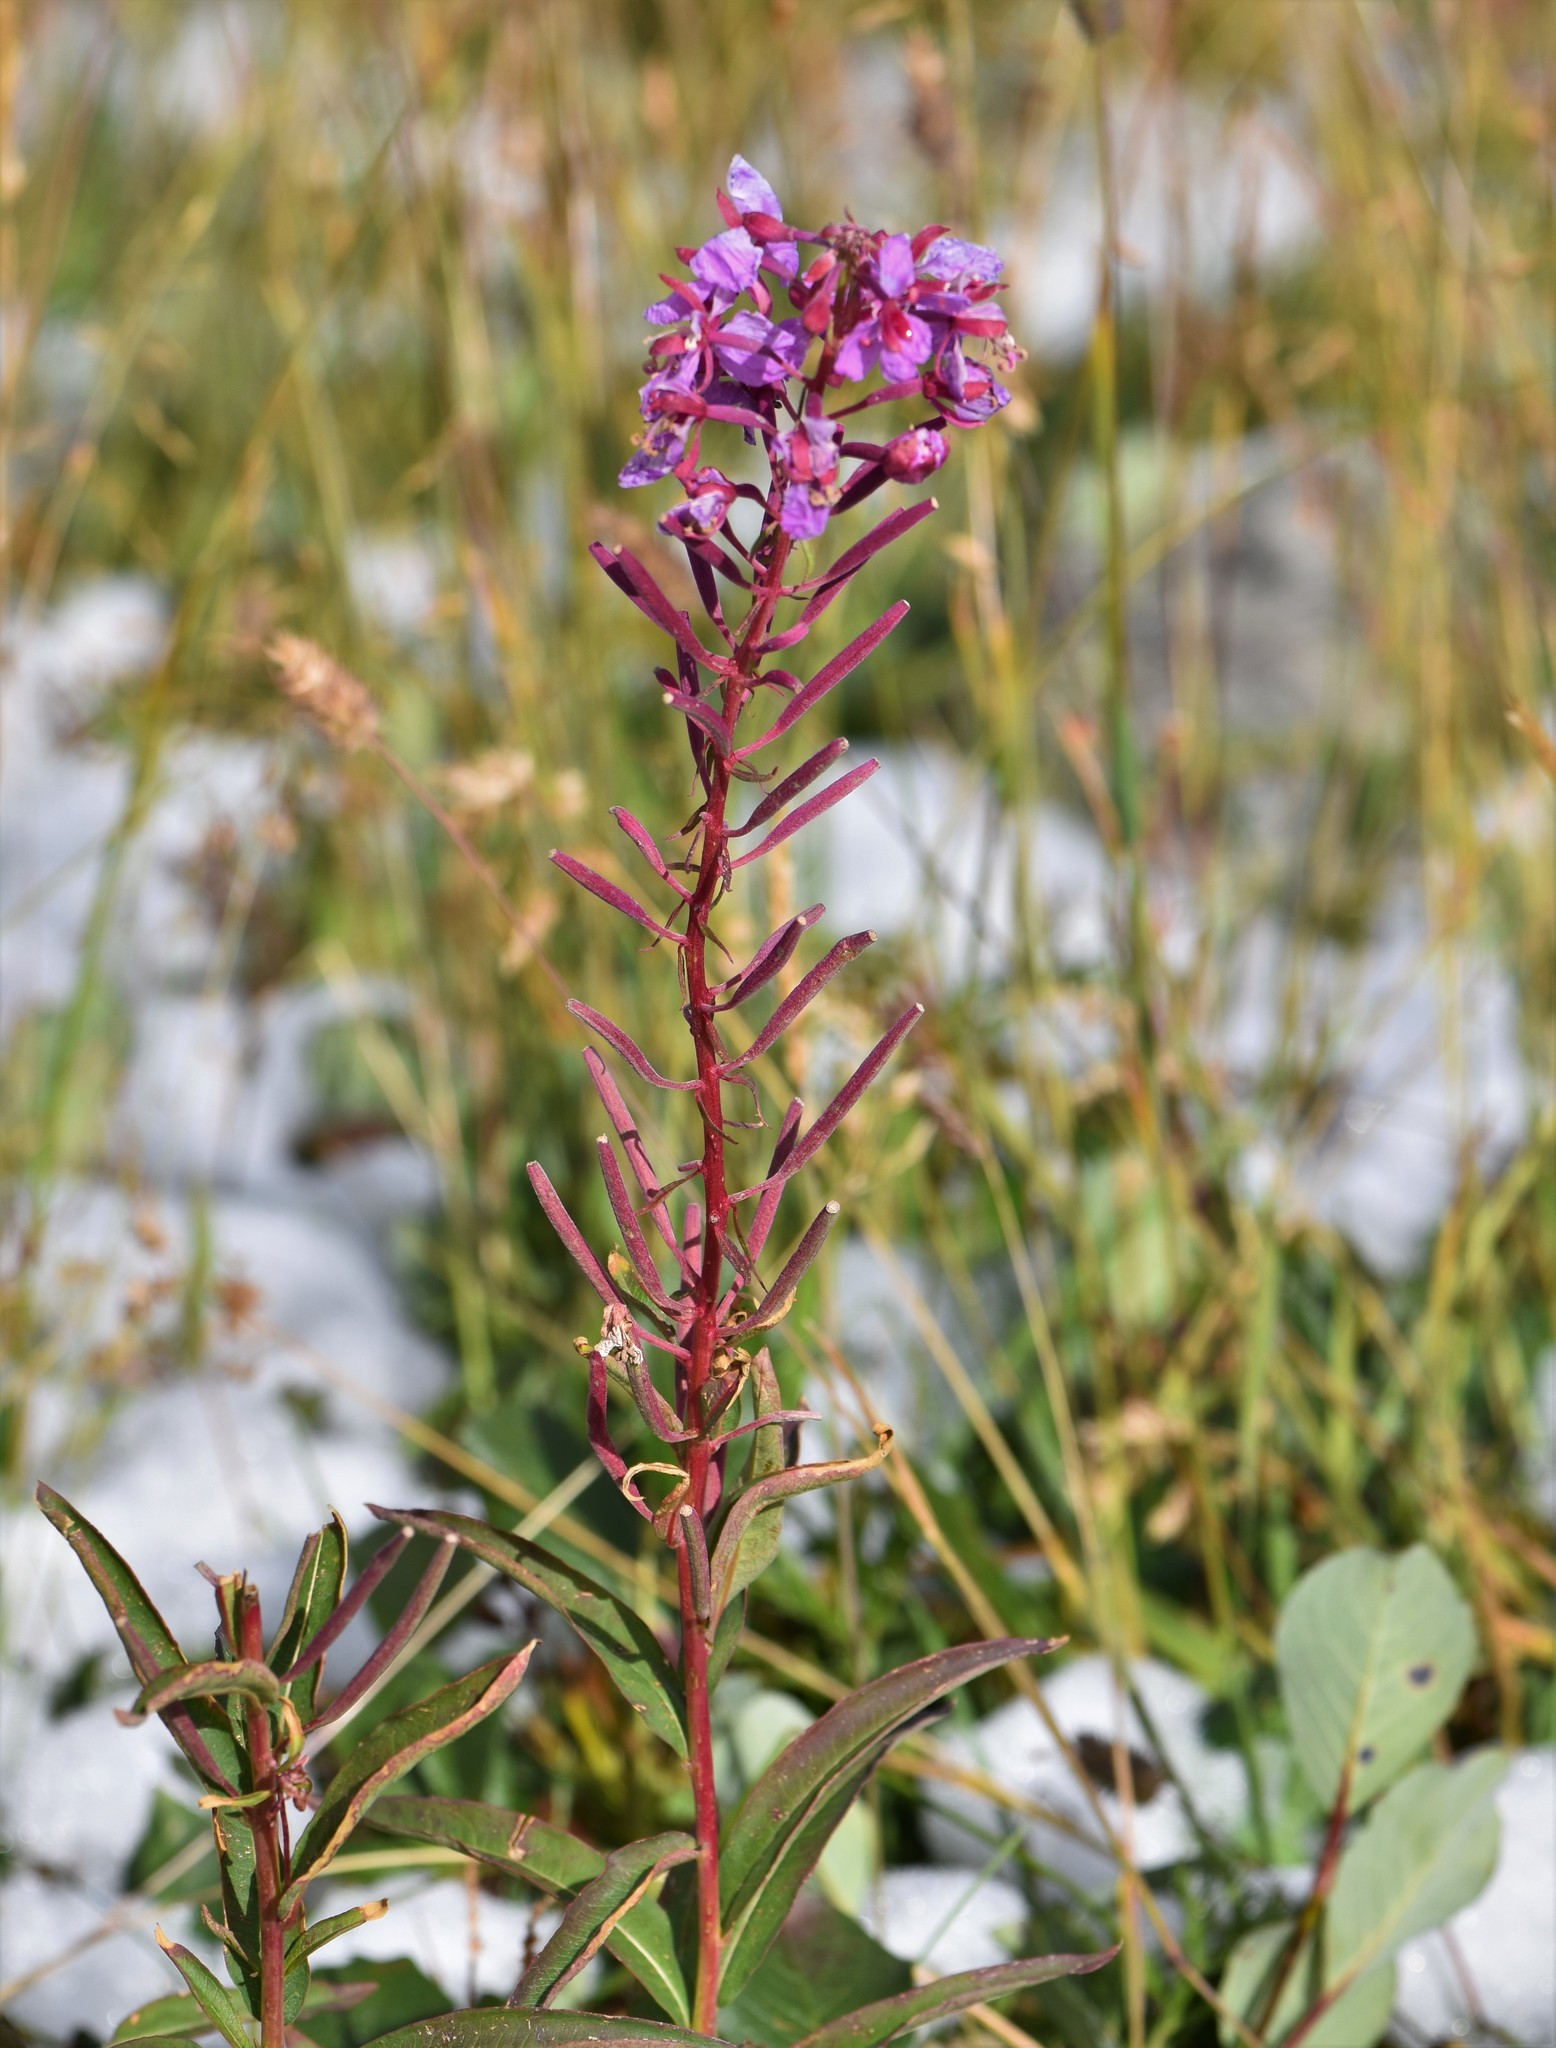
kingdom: Plantae
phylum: Tracheophyta
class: Magnoliopsida
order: Myrtales
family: Onagraceae
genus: Chamaenerion
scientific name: Chamaenerion angustifolium
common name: Fireweed
